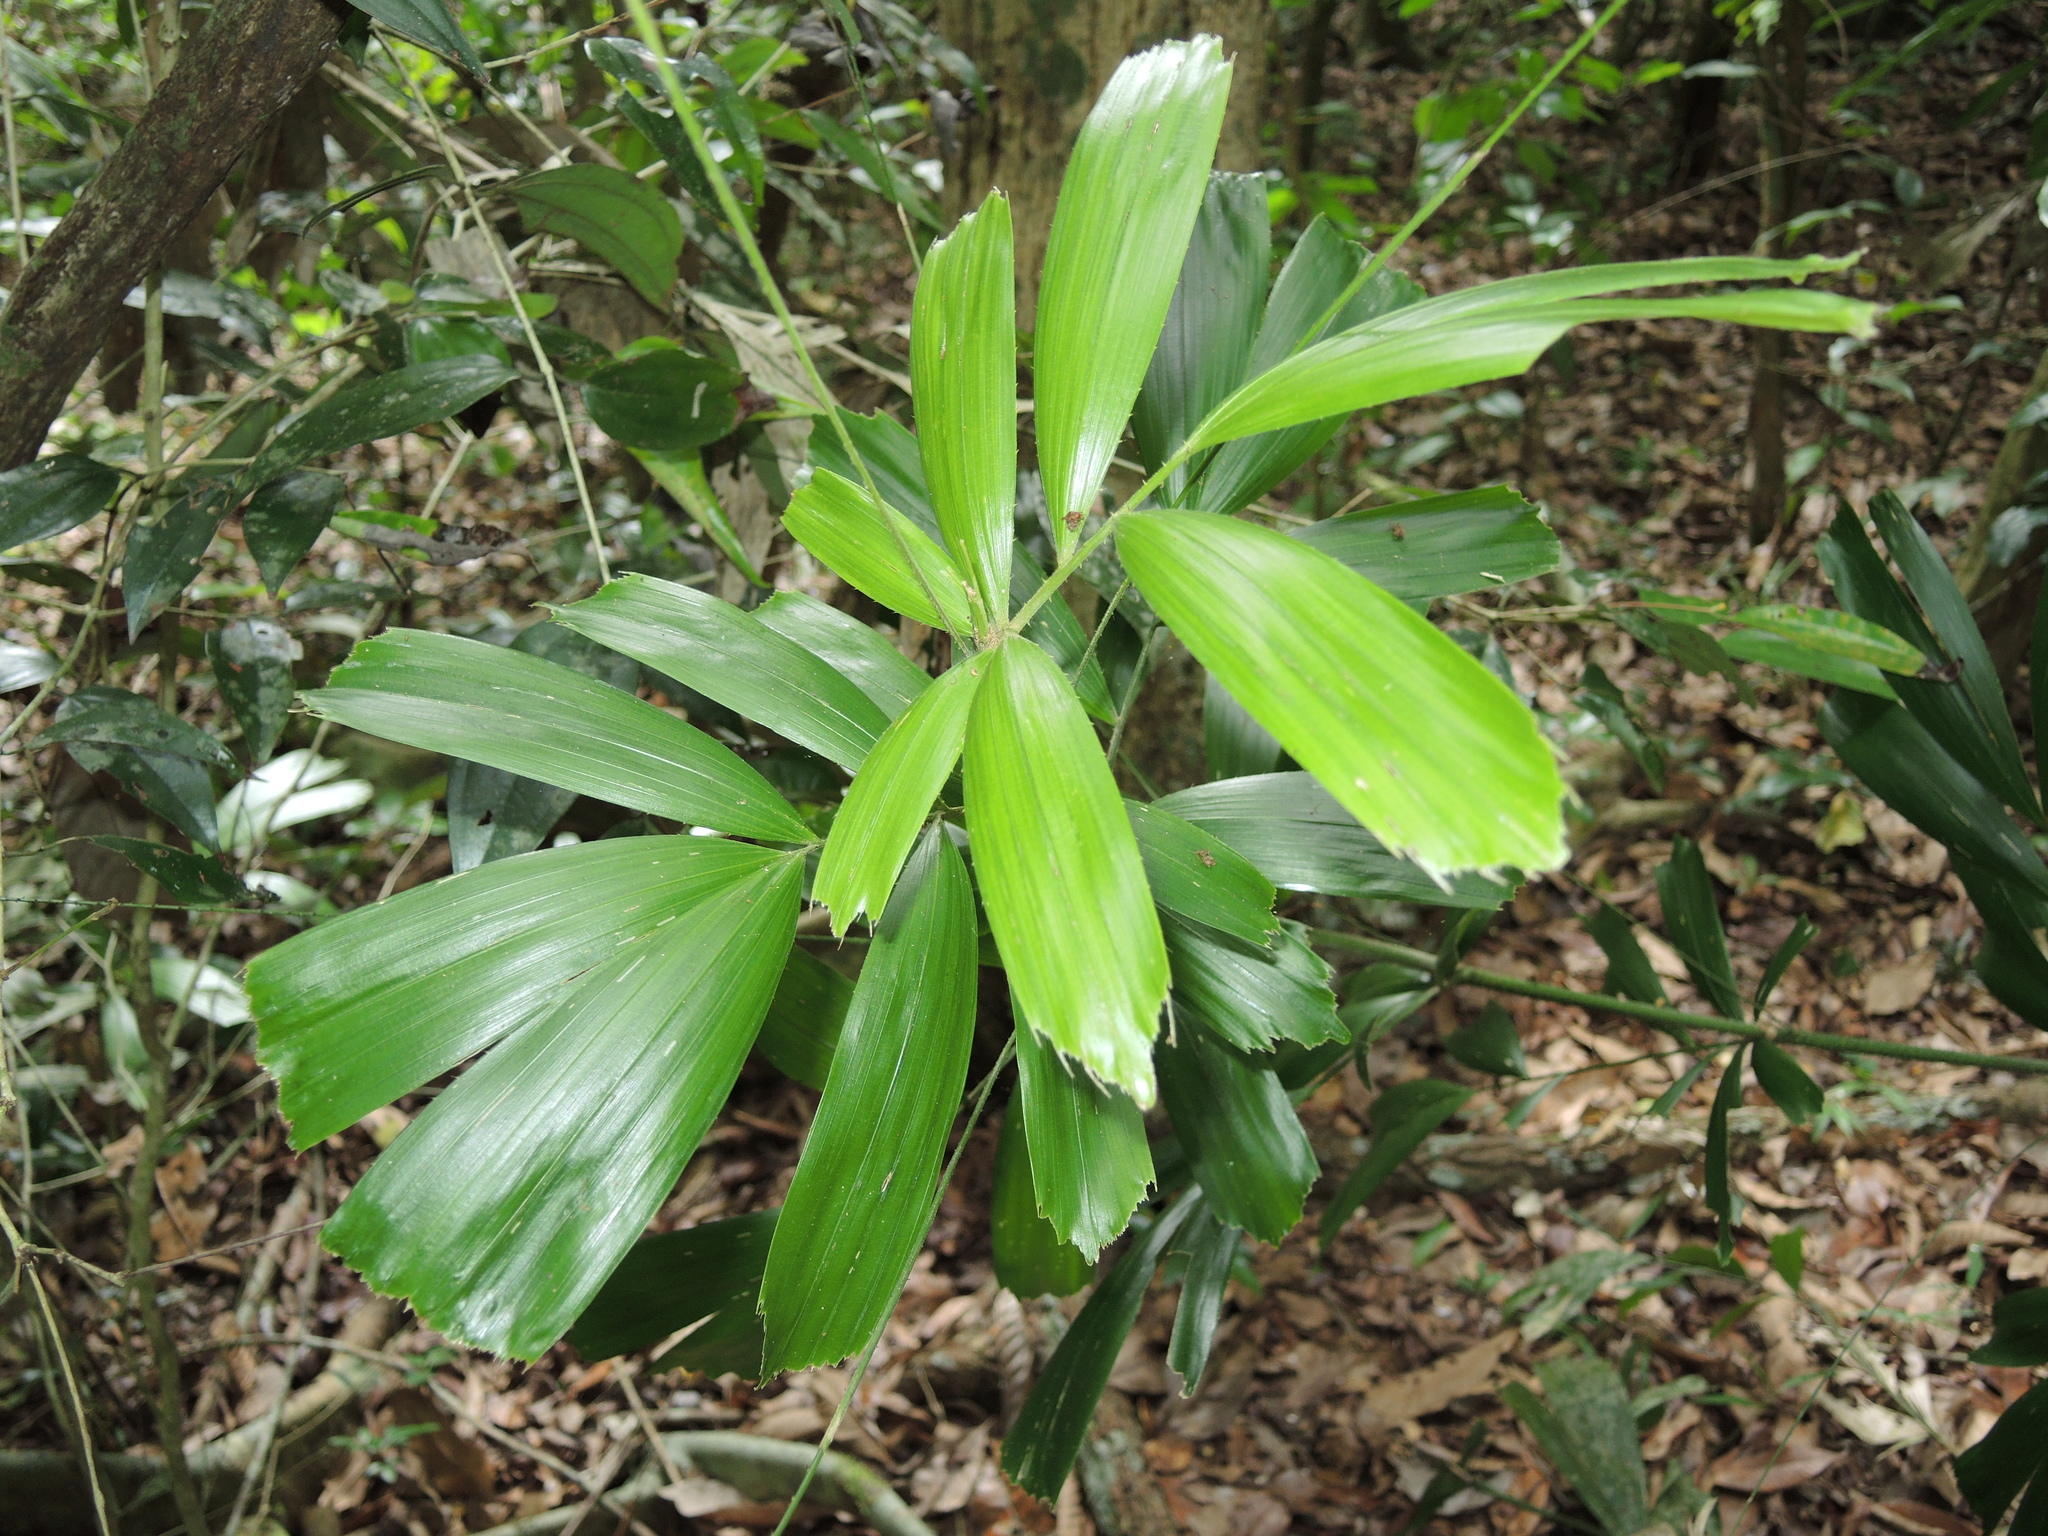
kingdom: Plantae
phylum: Tracheophyta
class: Liliopsida
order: Arecales
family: Arecaceae
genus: Calamus
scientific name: Calamus caryotoides
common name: Fishtail lawyer cane
